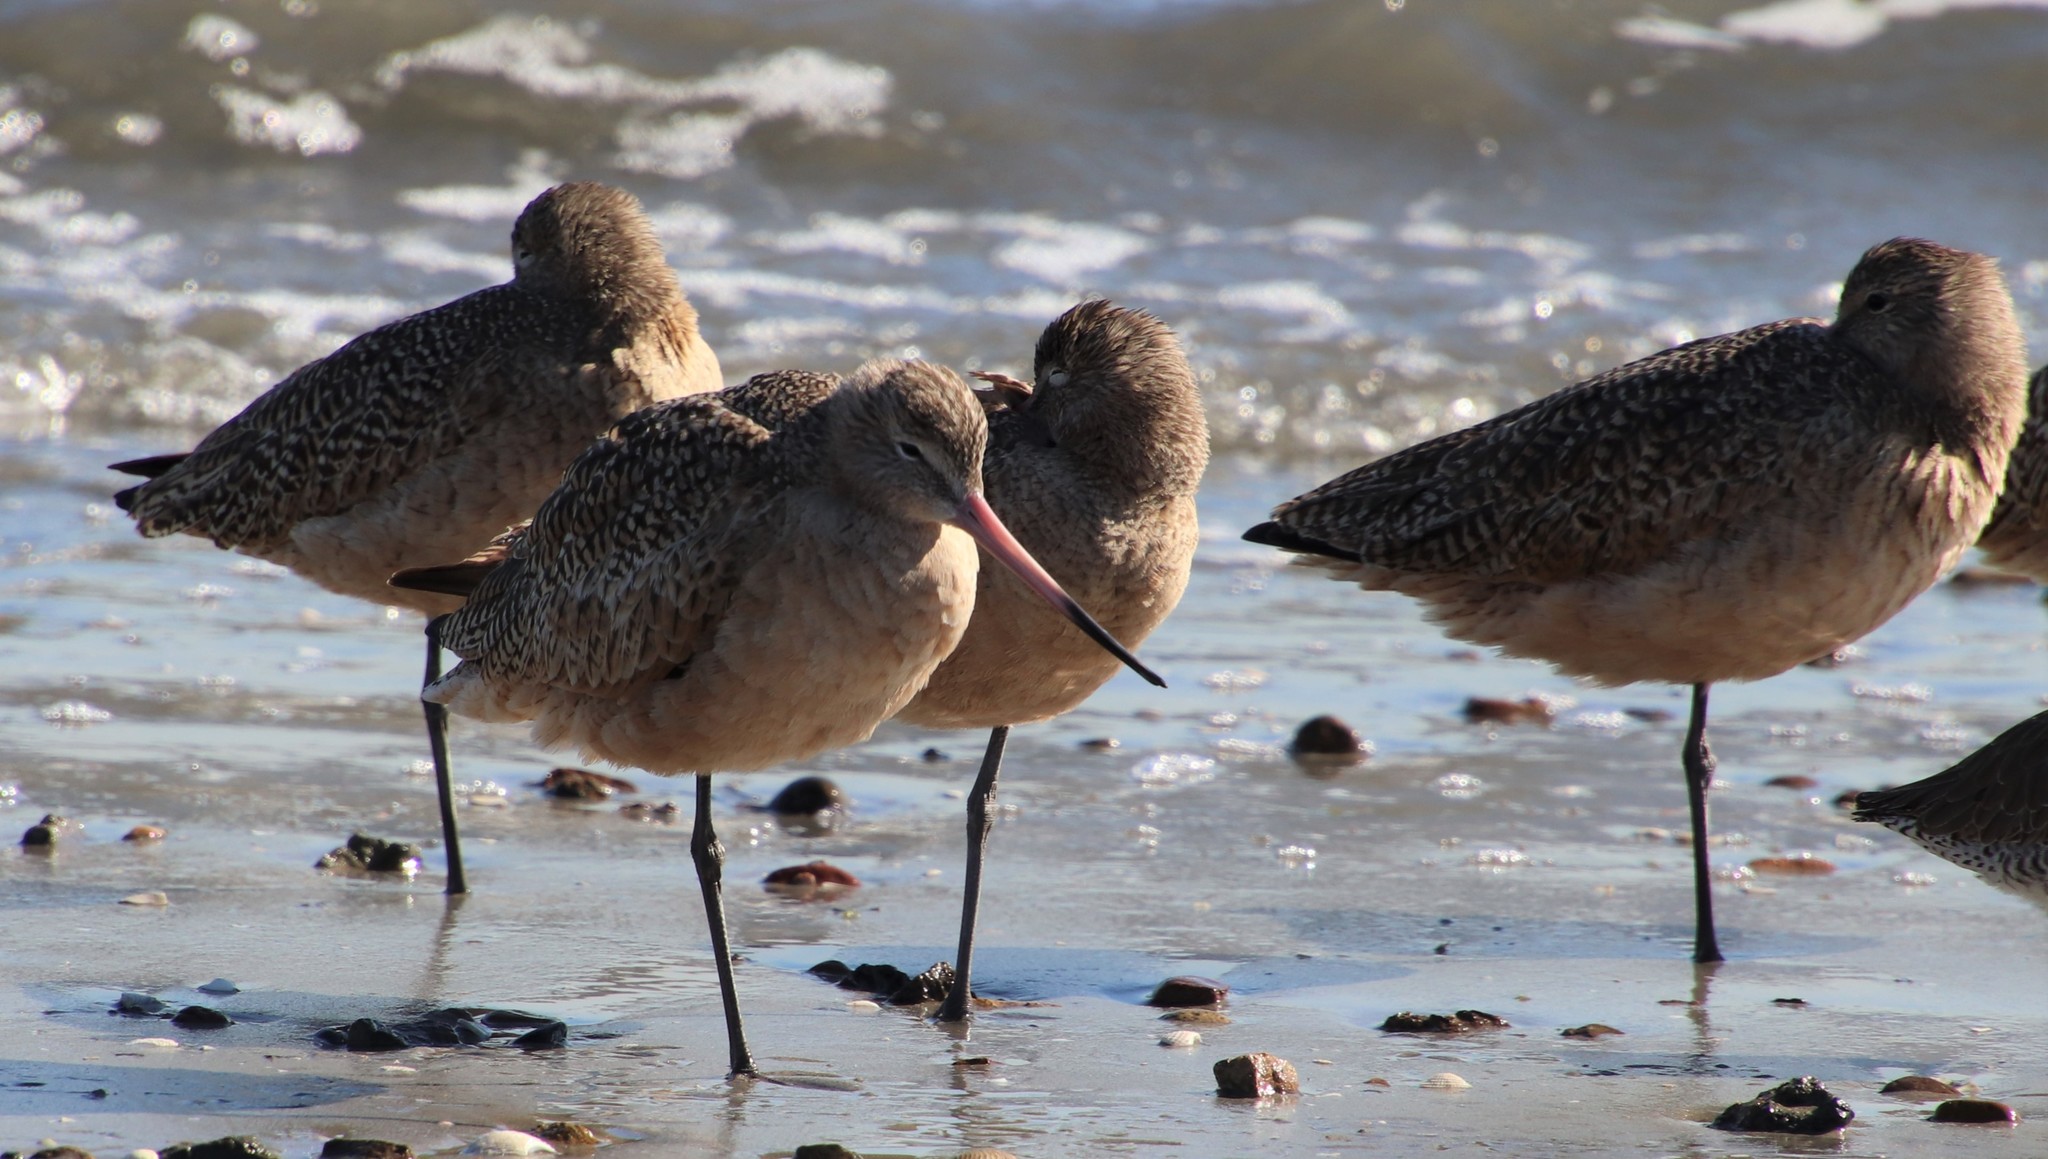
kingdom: Animalia
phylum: Chordata
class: Aves
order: Charadriiformes
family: Scolopacidae
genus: Limosa
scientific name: Limosa fedoa
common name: Marbled godwit
